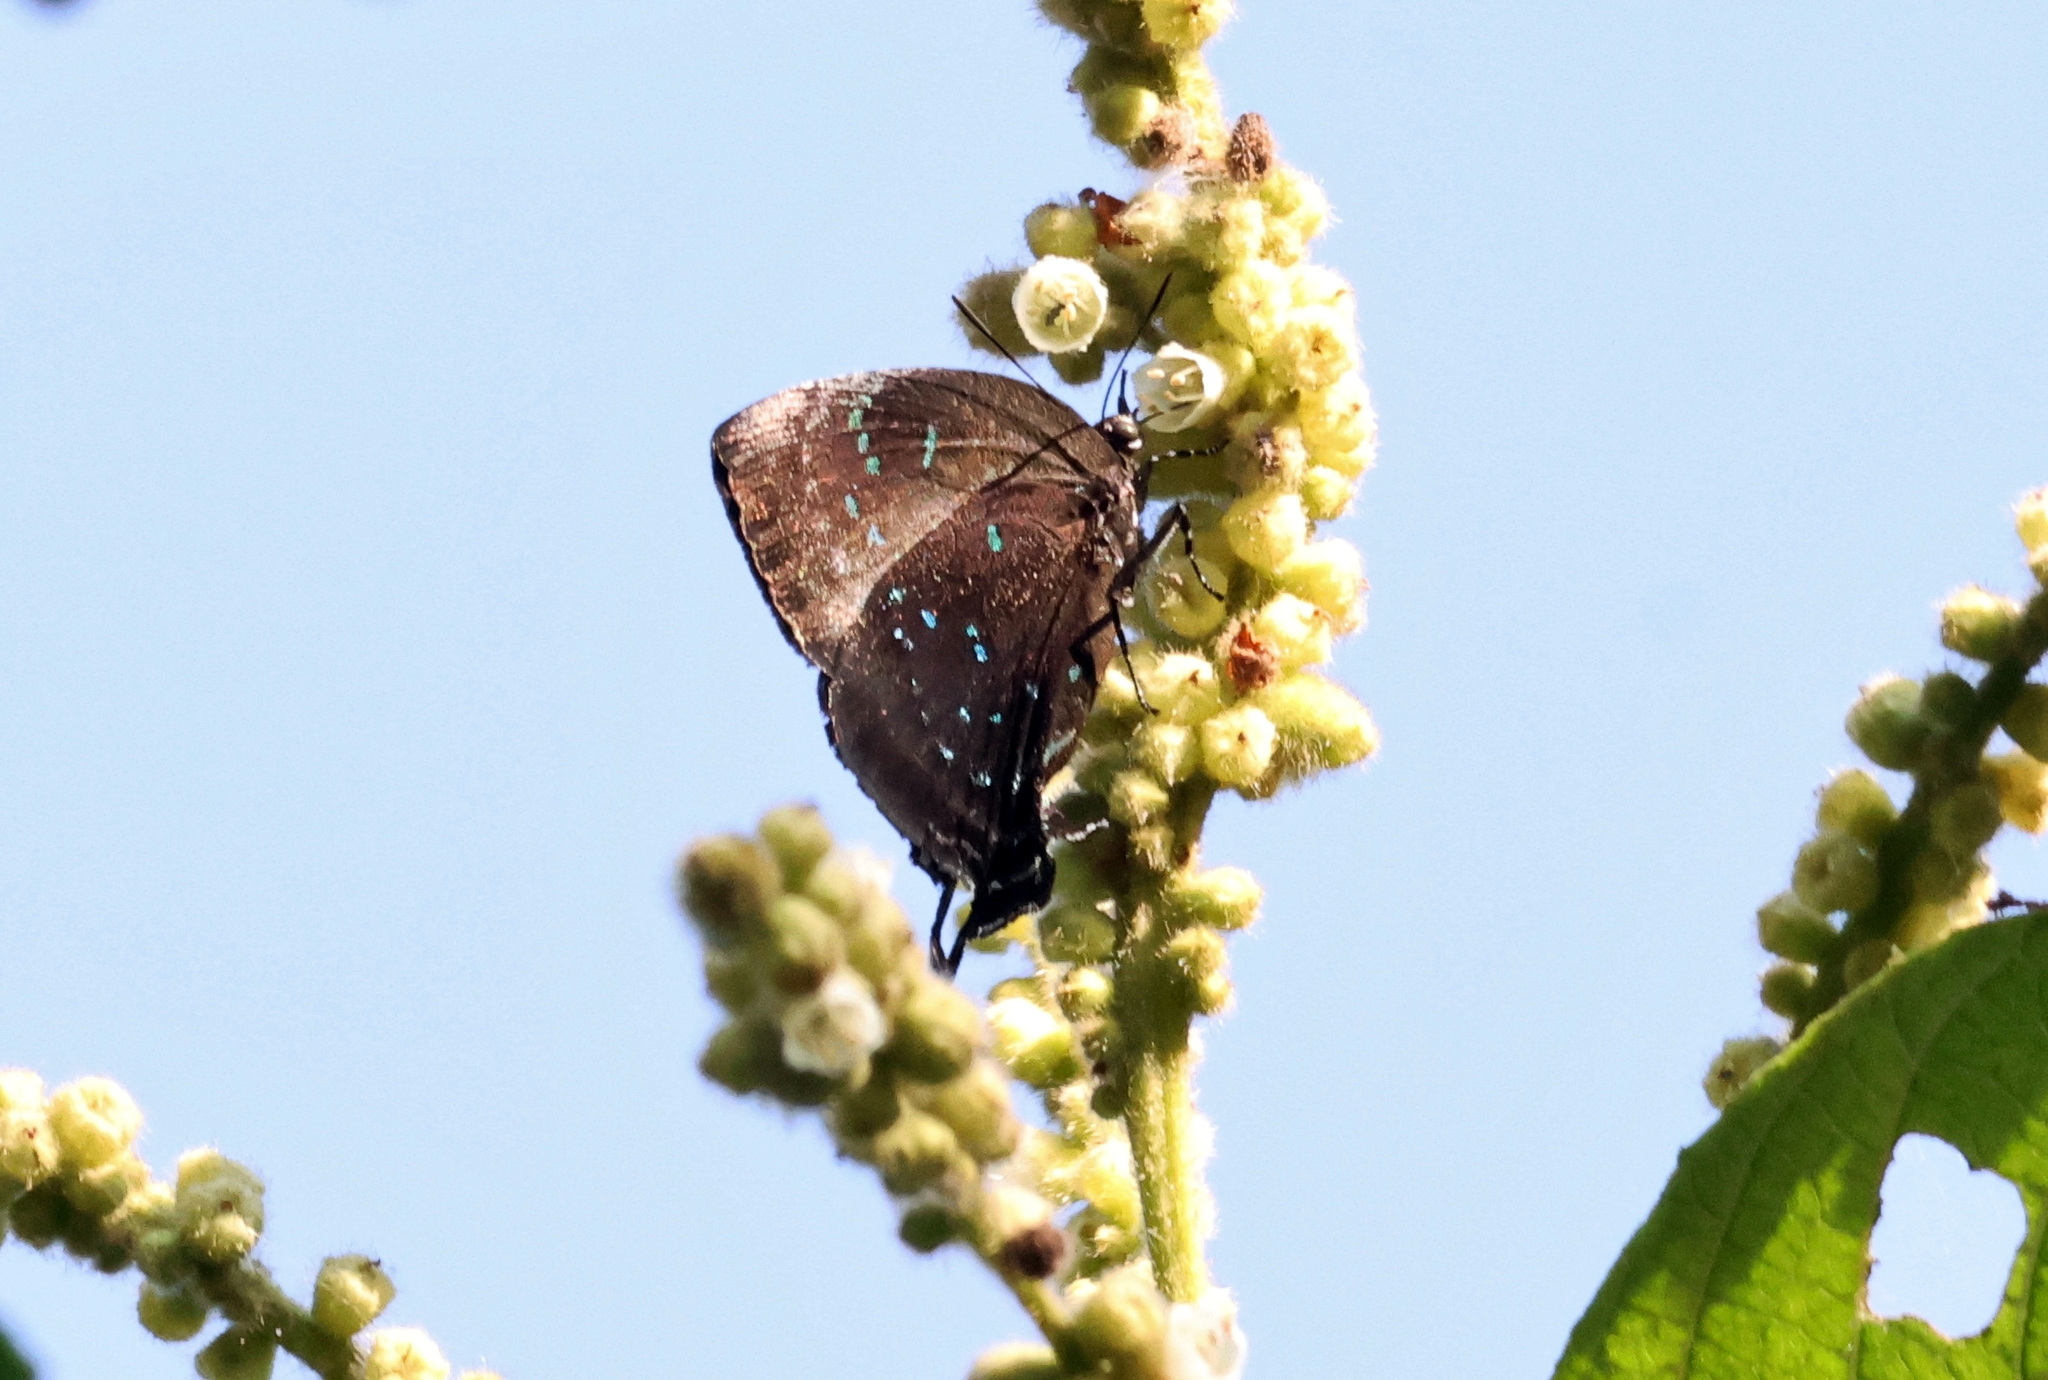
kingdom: Animalia
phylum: Arthropoda
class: Insecta
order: Lepidoptera
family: Lycaenidae
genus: Denivia
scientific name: Denivia
